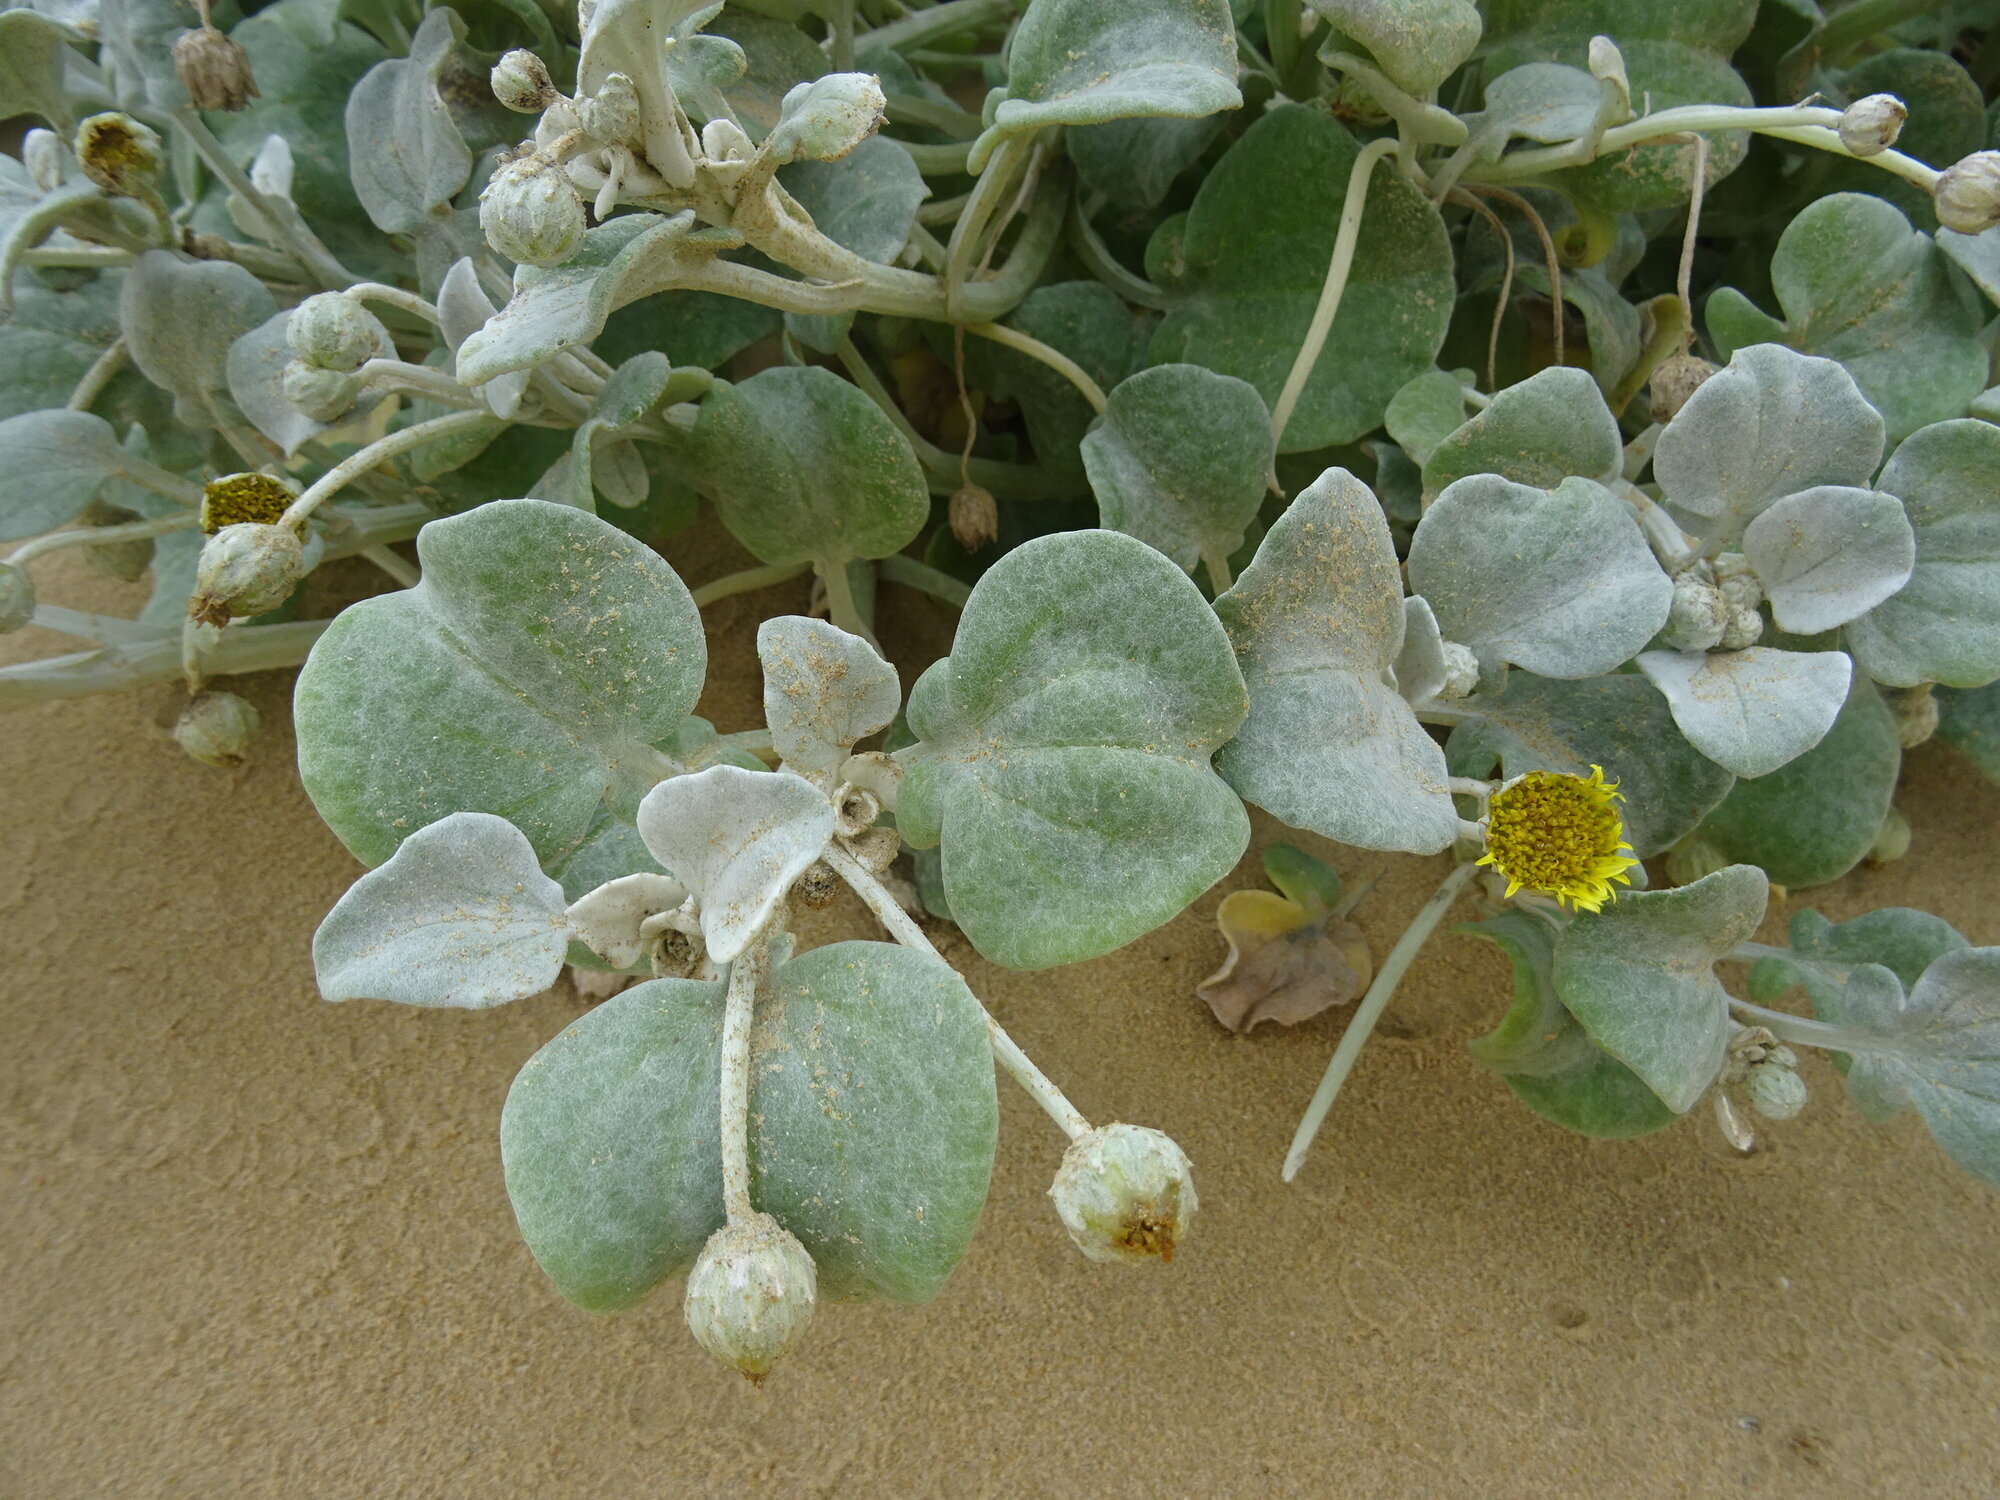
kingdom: Plantae
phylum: Tracheophyta
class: Magnoliopsida
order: Asterales
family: Asteraceae
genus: Arctotheca
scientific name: Arctotheca populifolia
